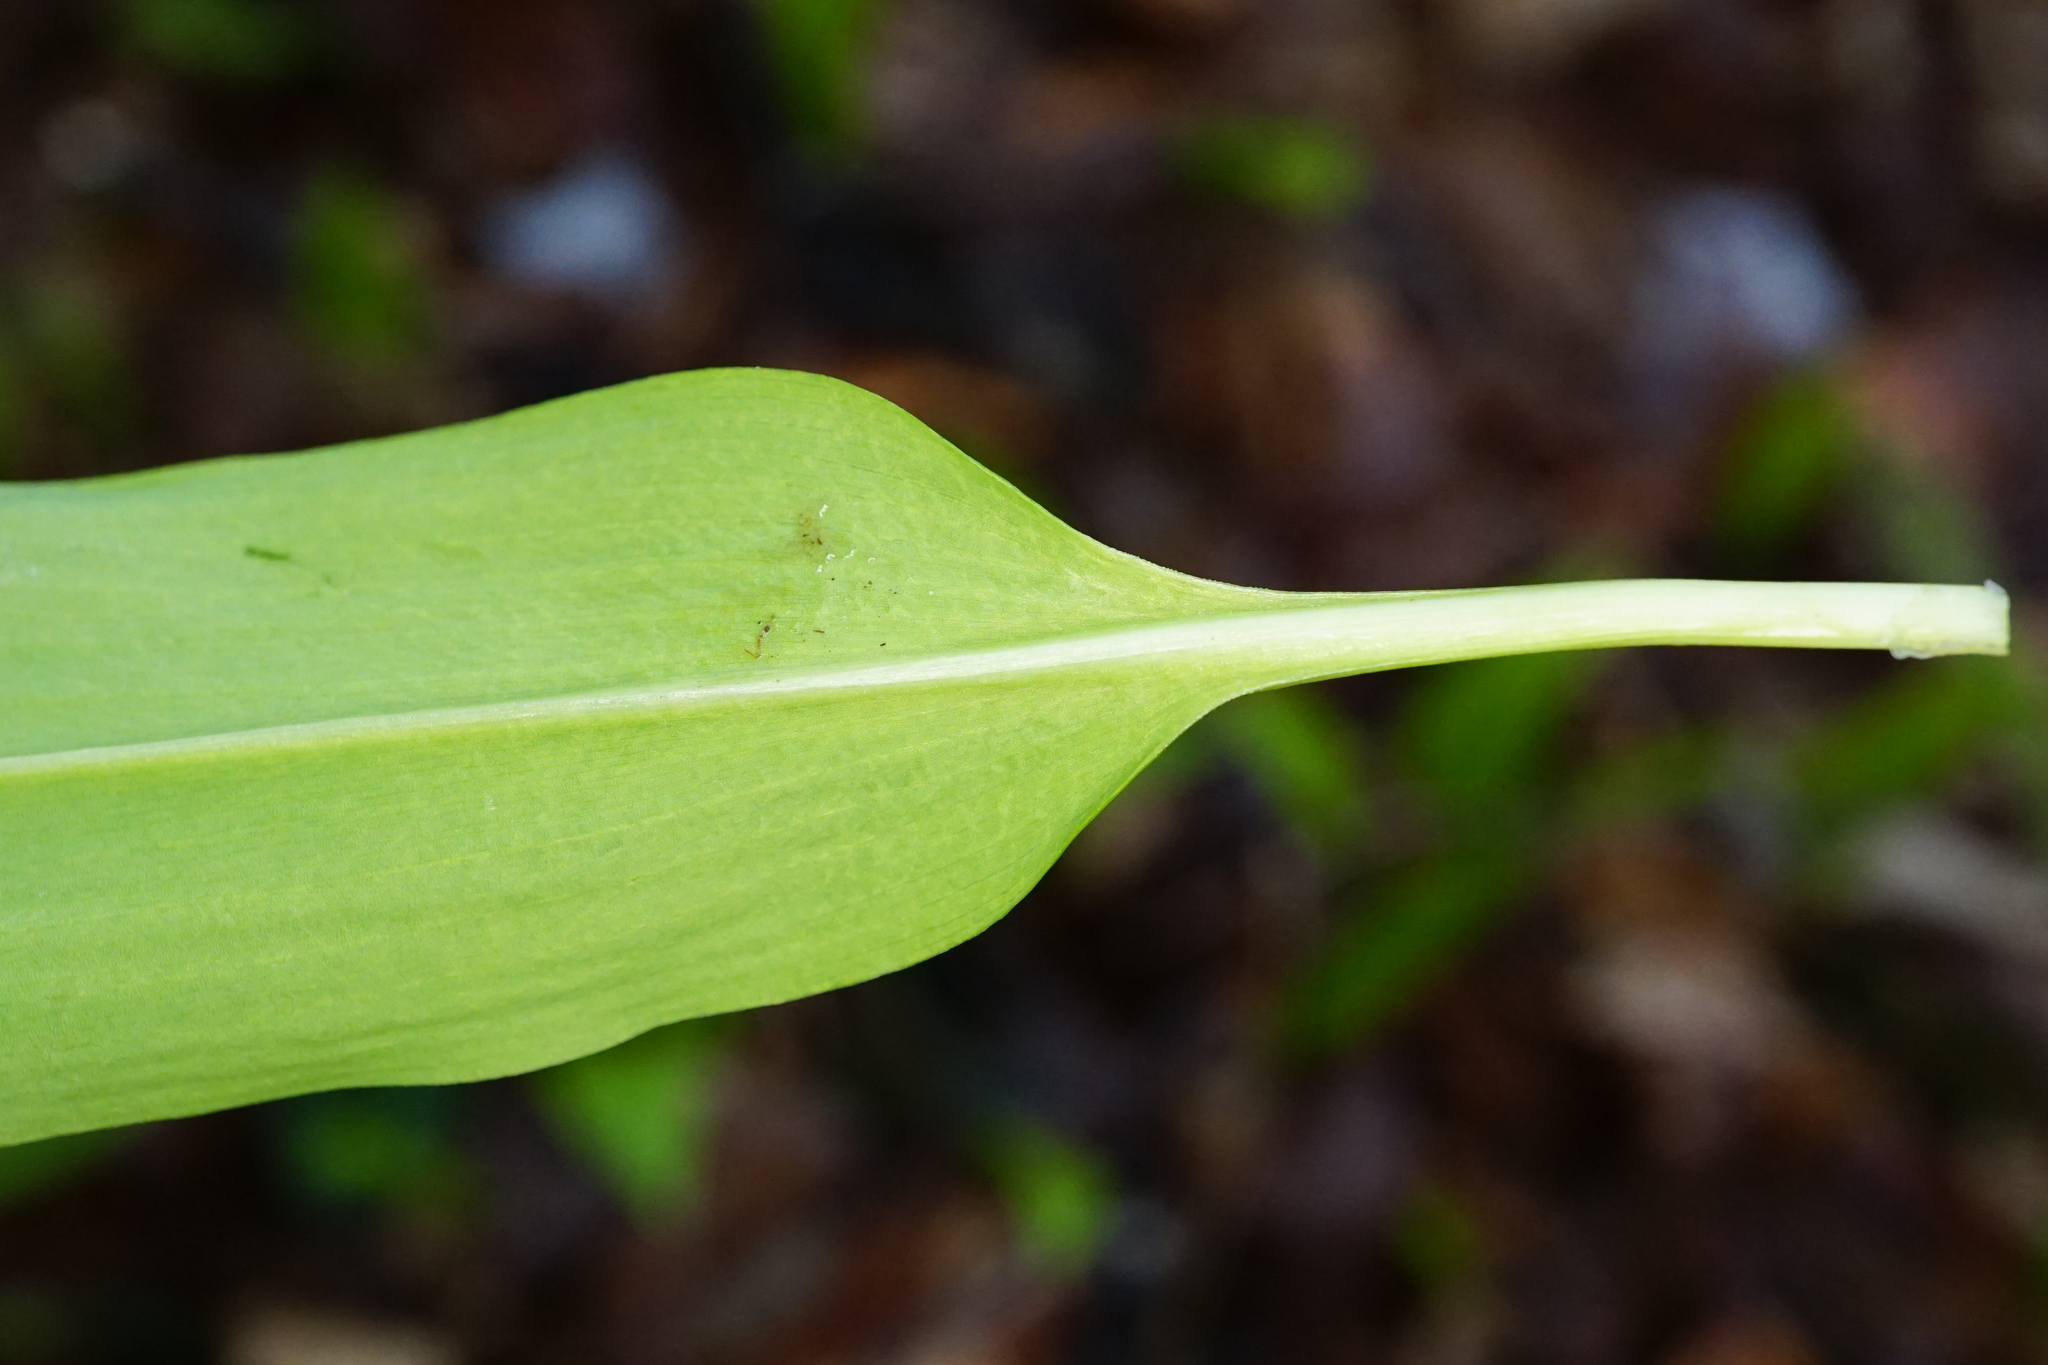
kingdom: Plantae
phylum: Tracheophyta
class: Liliopsida
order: Asparagales
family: Amaryllidaceae
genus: Allium
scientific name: Allium ursinum
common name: Ramsons
